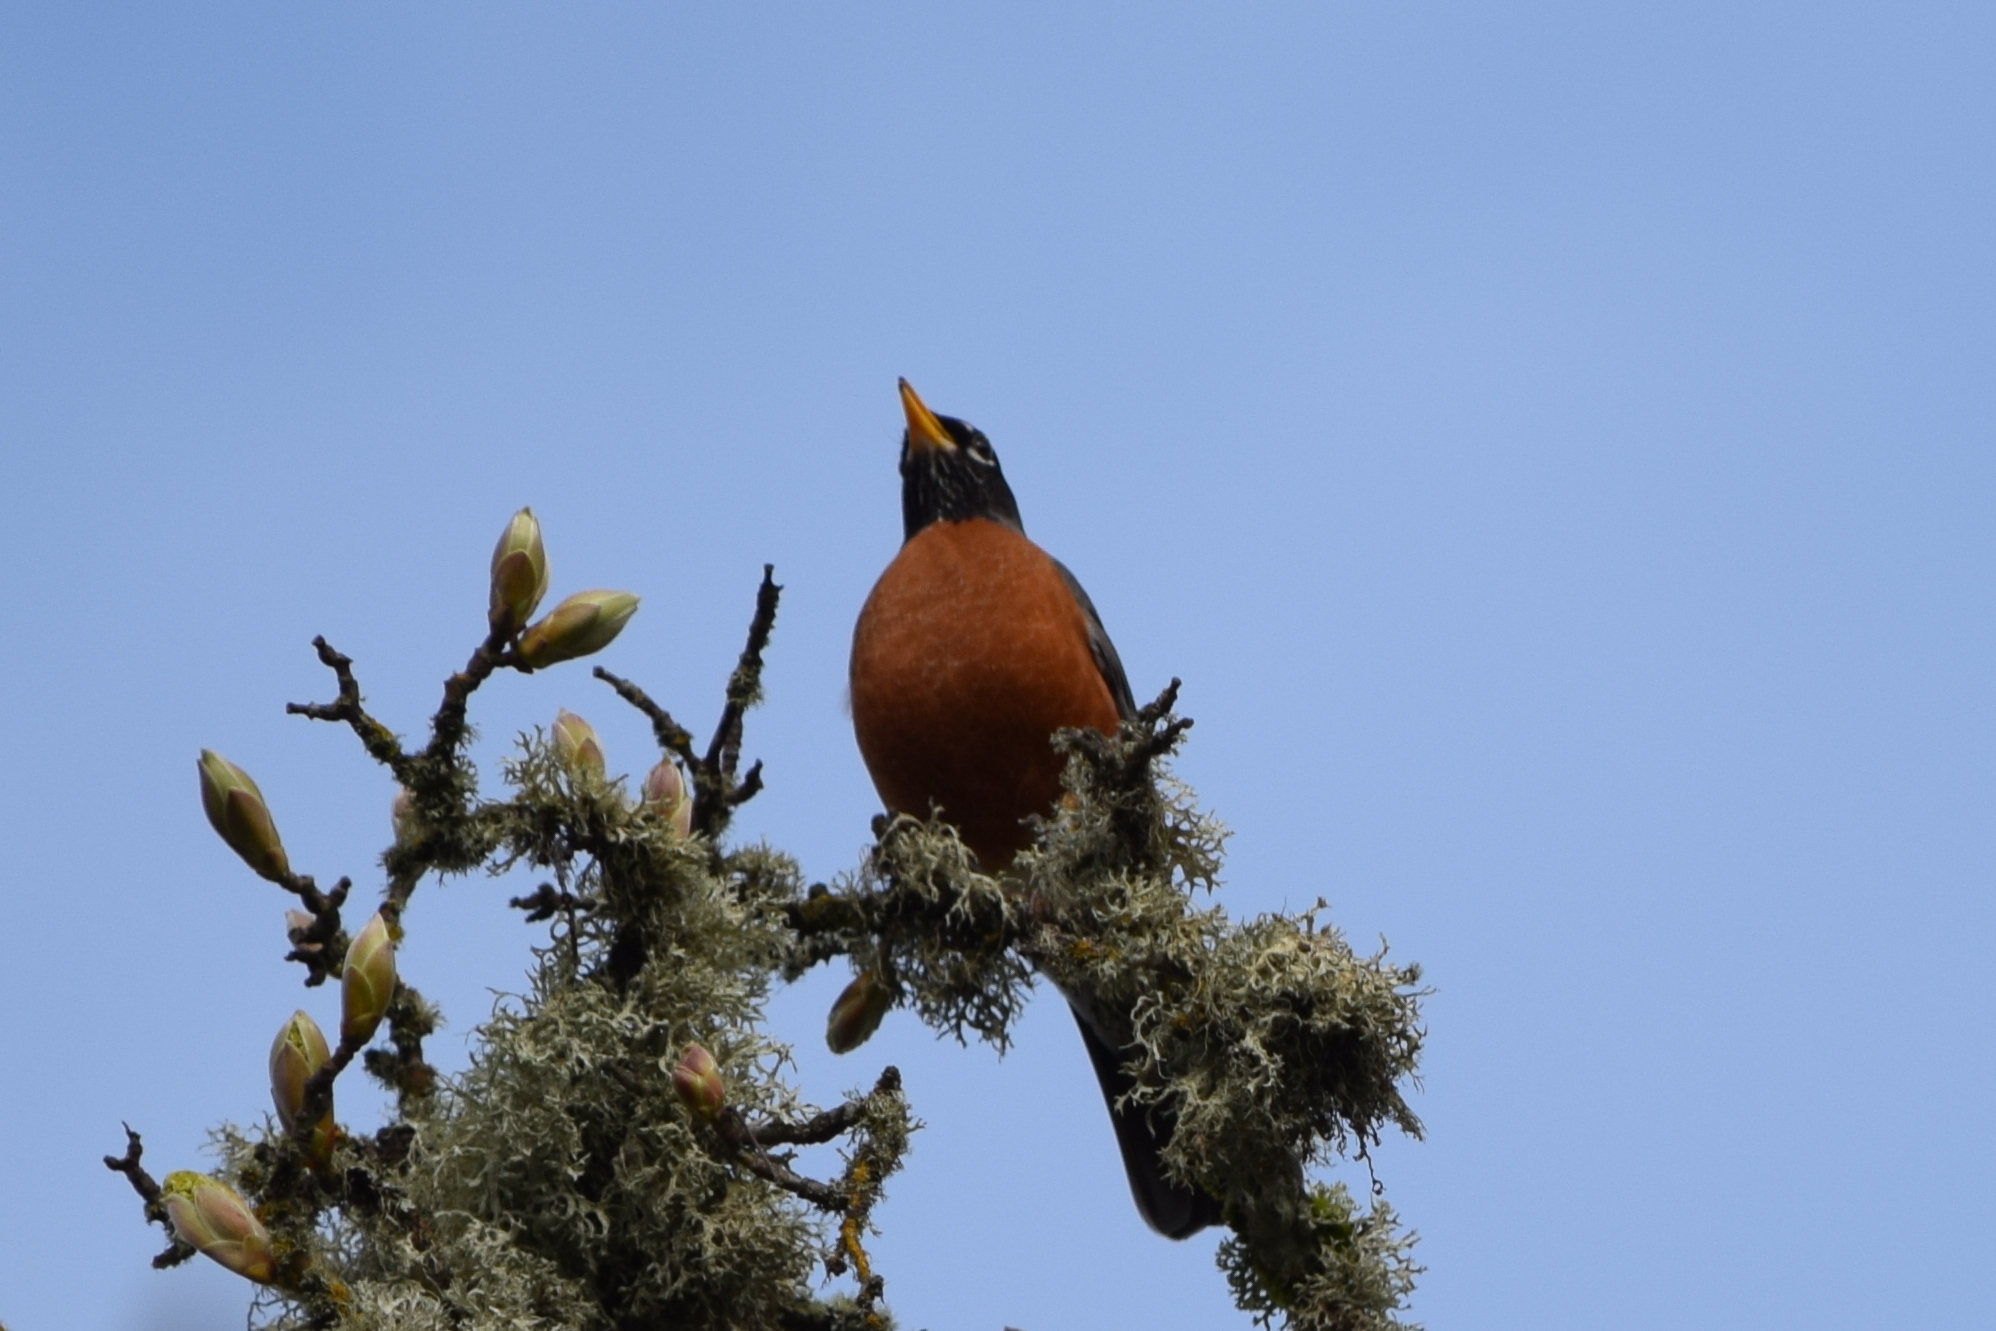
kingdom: Animalia
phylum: Chordata
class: Aves
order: Passeriformes
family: Turdidae
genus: Turdus
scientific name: Turdus migratorius
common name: American robin
